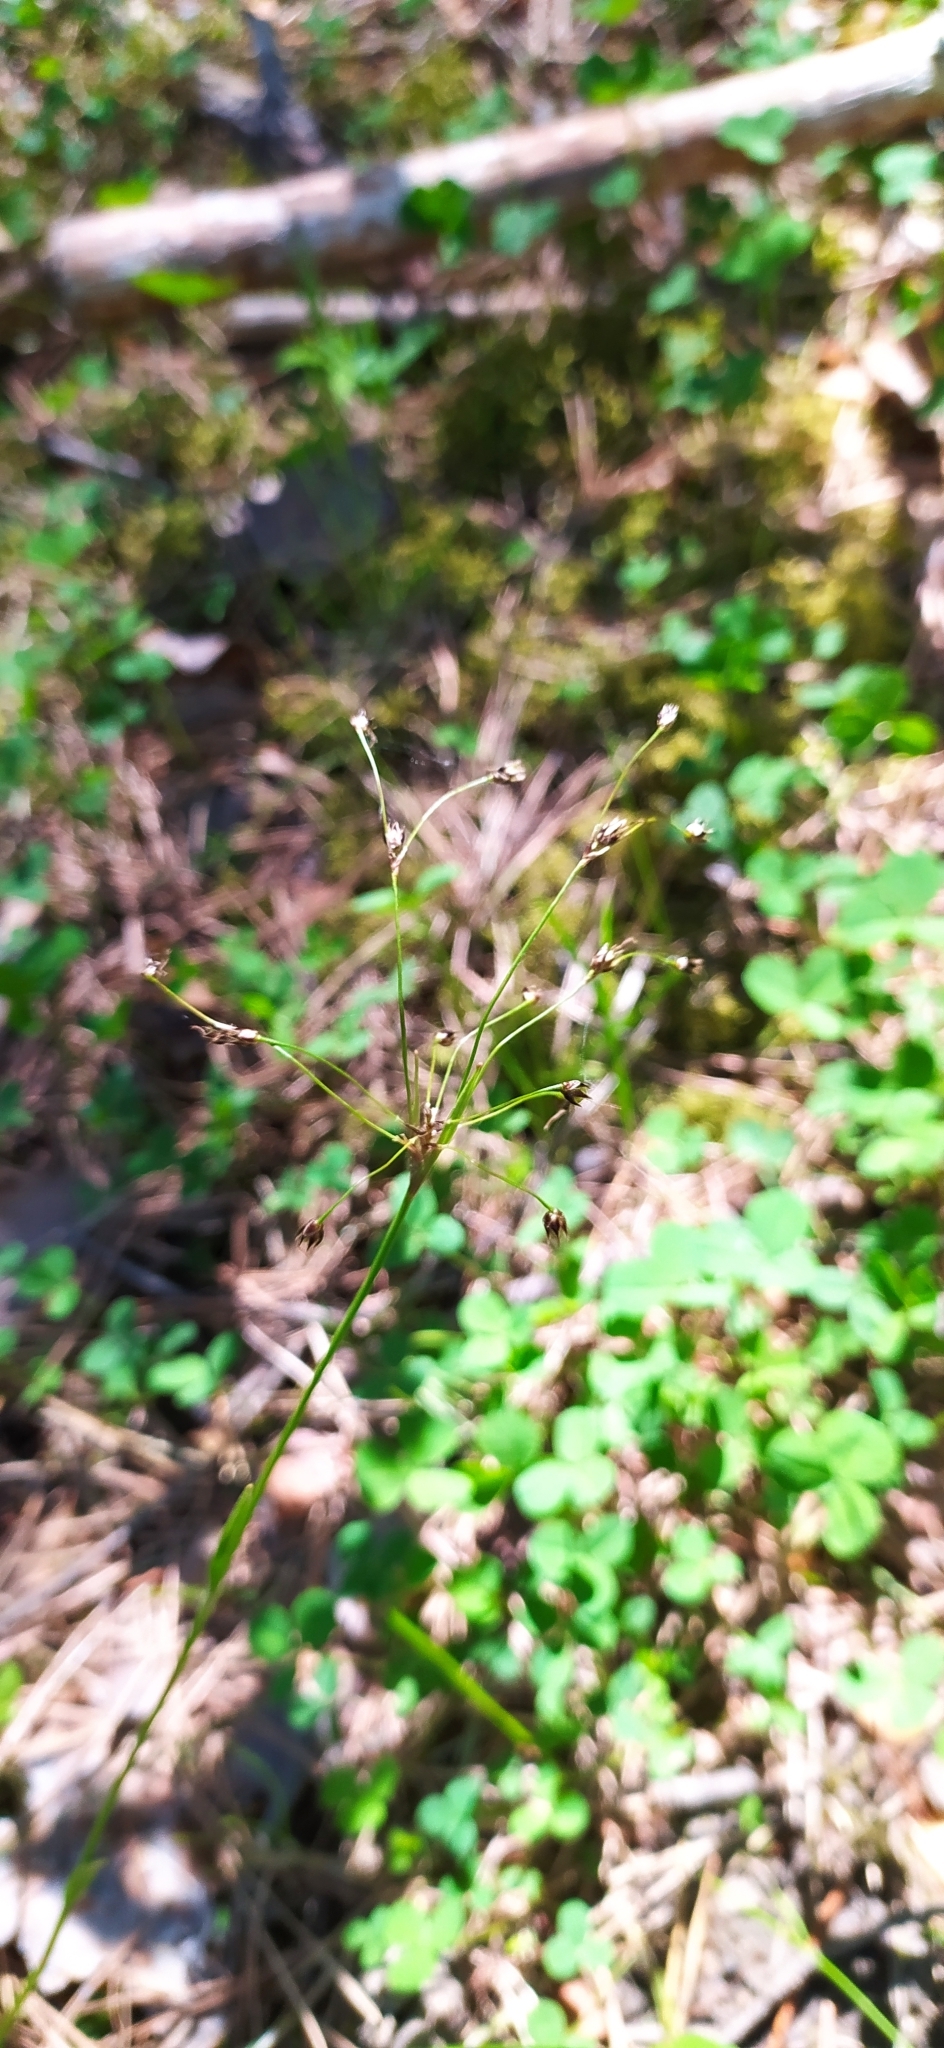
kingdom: Plantae
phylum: Tracheophyta
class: Liliopsida
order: Poales
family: Juncaceae
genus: Luzula
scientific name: Luzula pilosa
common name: Hairy wood-rush
